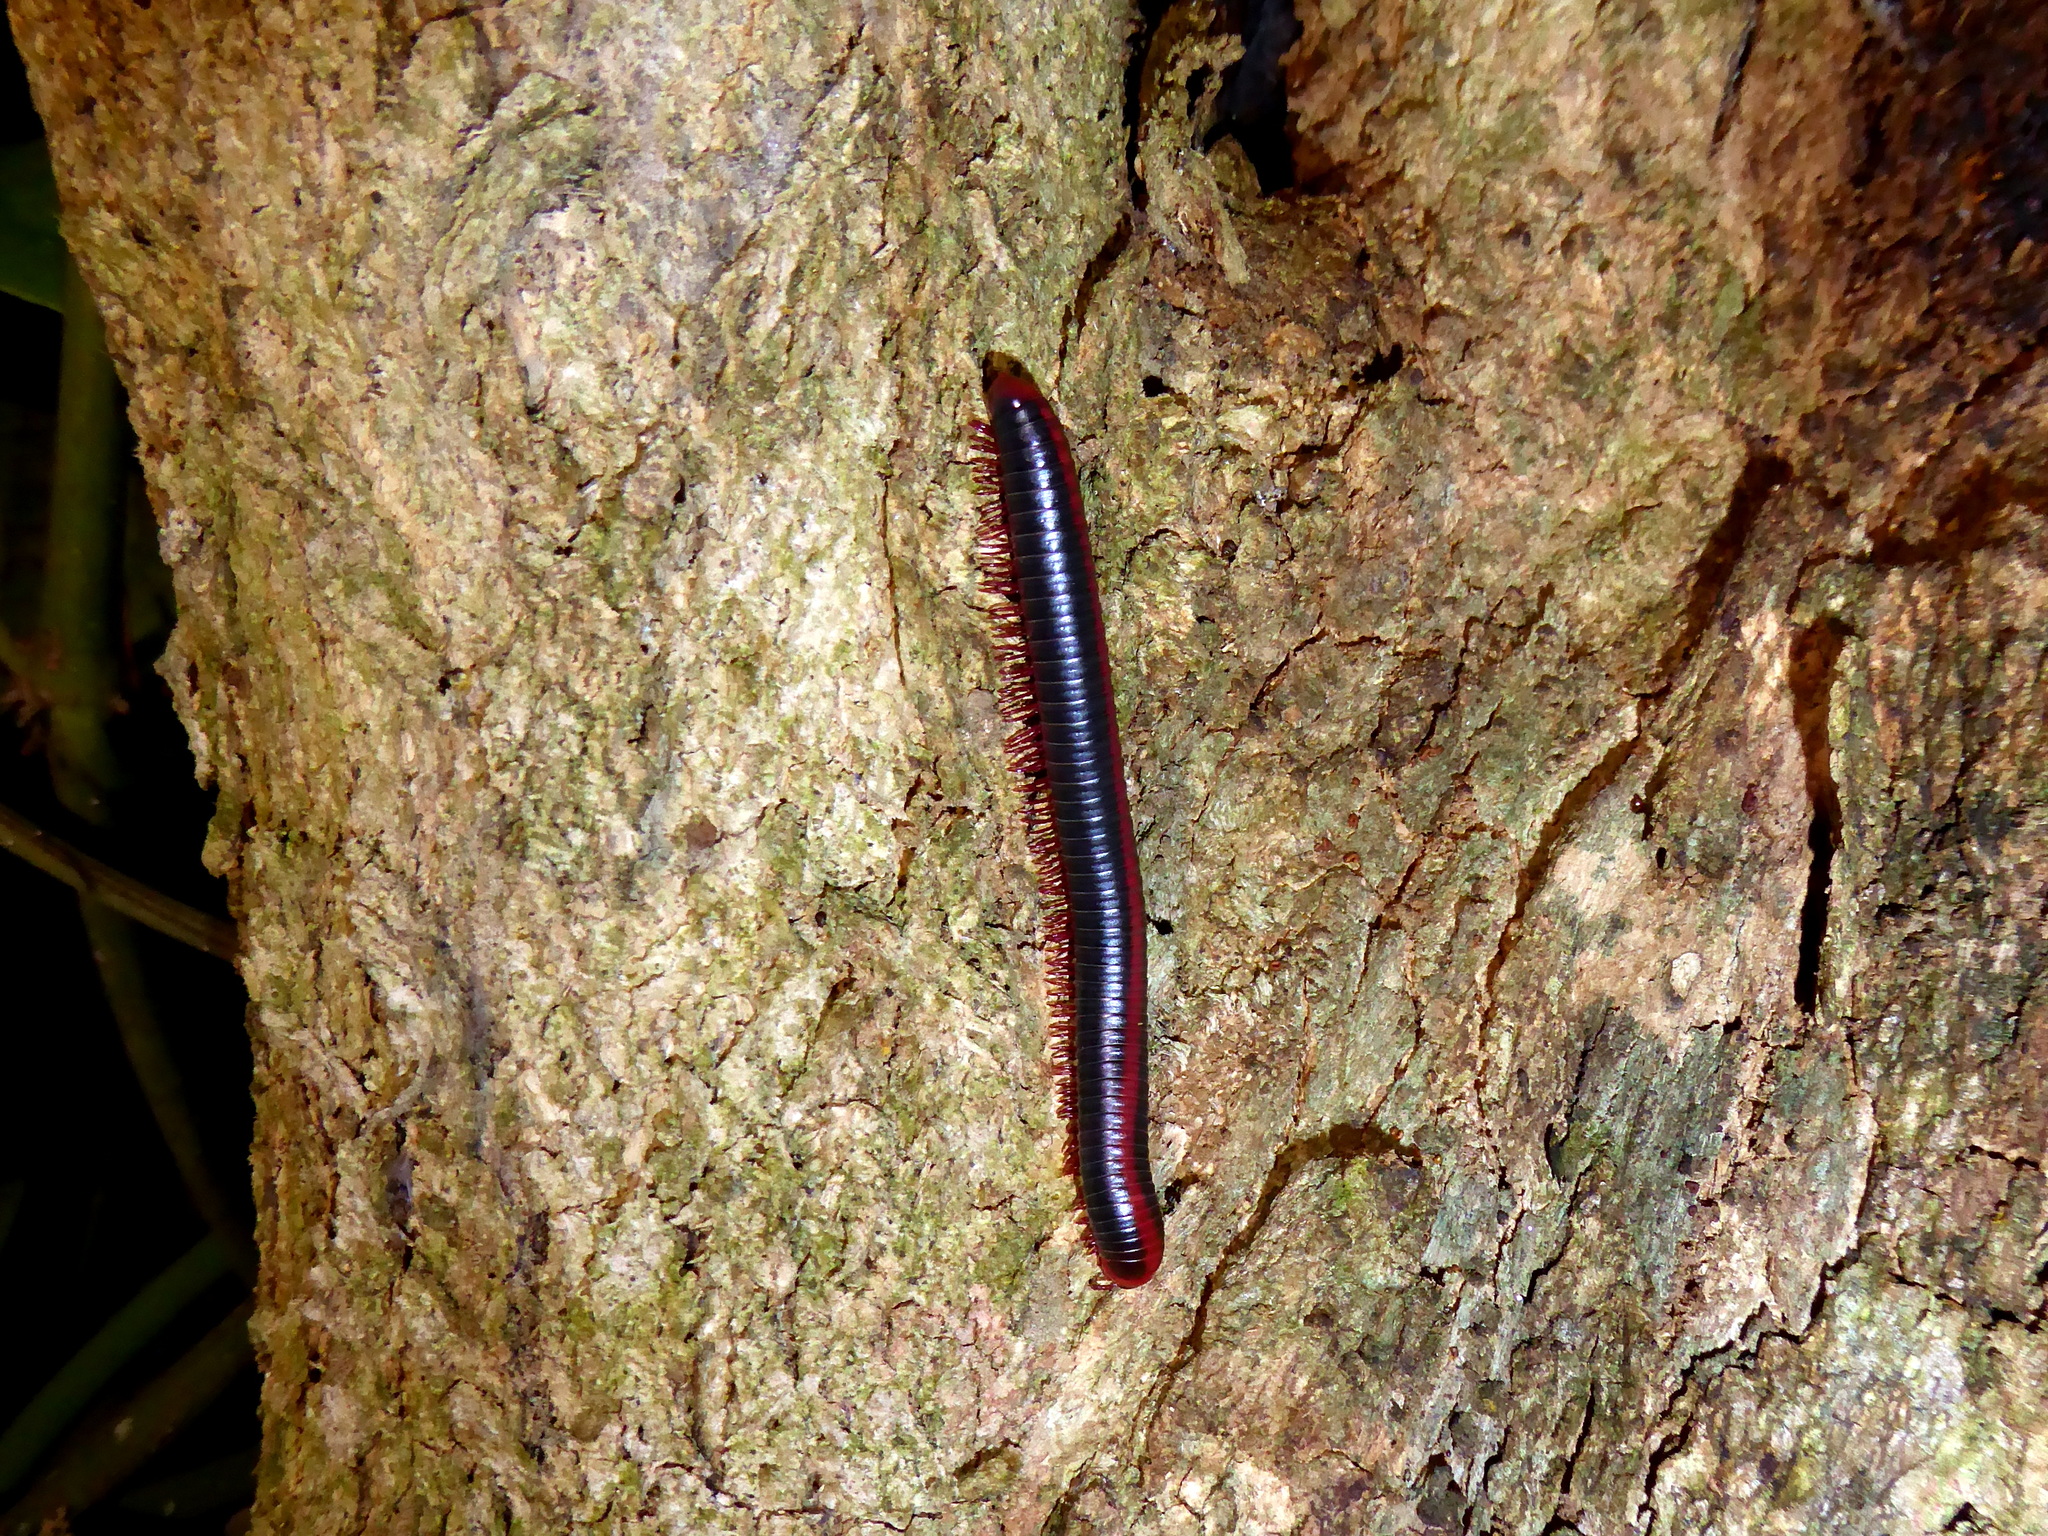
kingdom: Animalia
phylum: Arthropoda
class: Diplopoda
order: Spirobolida
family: Pachybolidae
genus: Xenobolus
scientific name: Xenobolus carnifex
